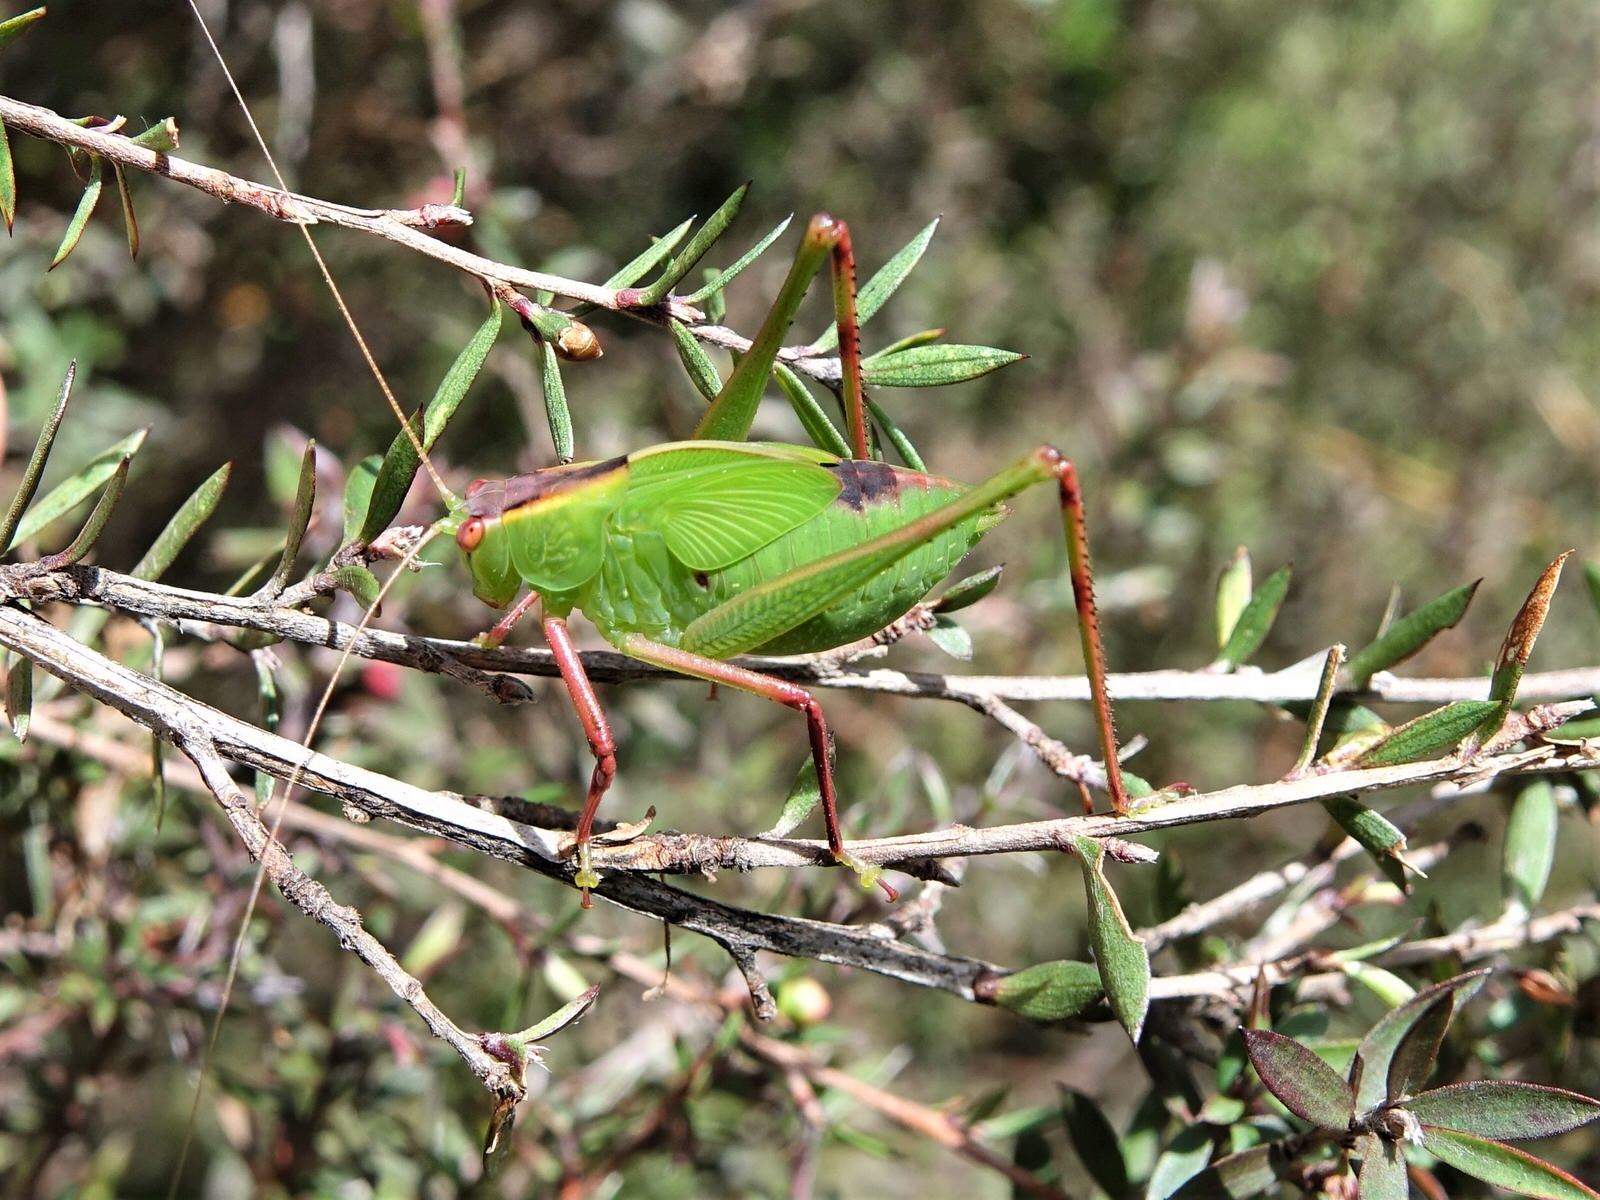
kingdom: Animalia
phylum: Arthropoda
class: Insecta
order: Orthoptera
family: Tettigoniidae
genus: Caedicia
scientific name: Caedicia simplex
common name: Common garden katydid
